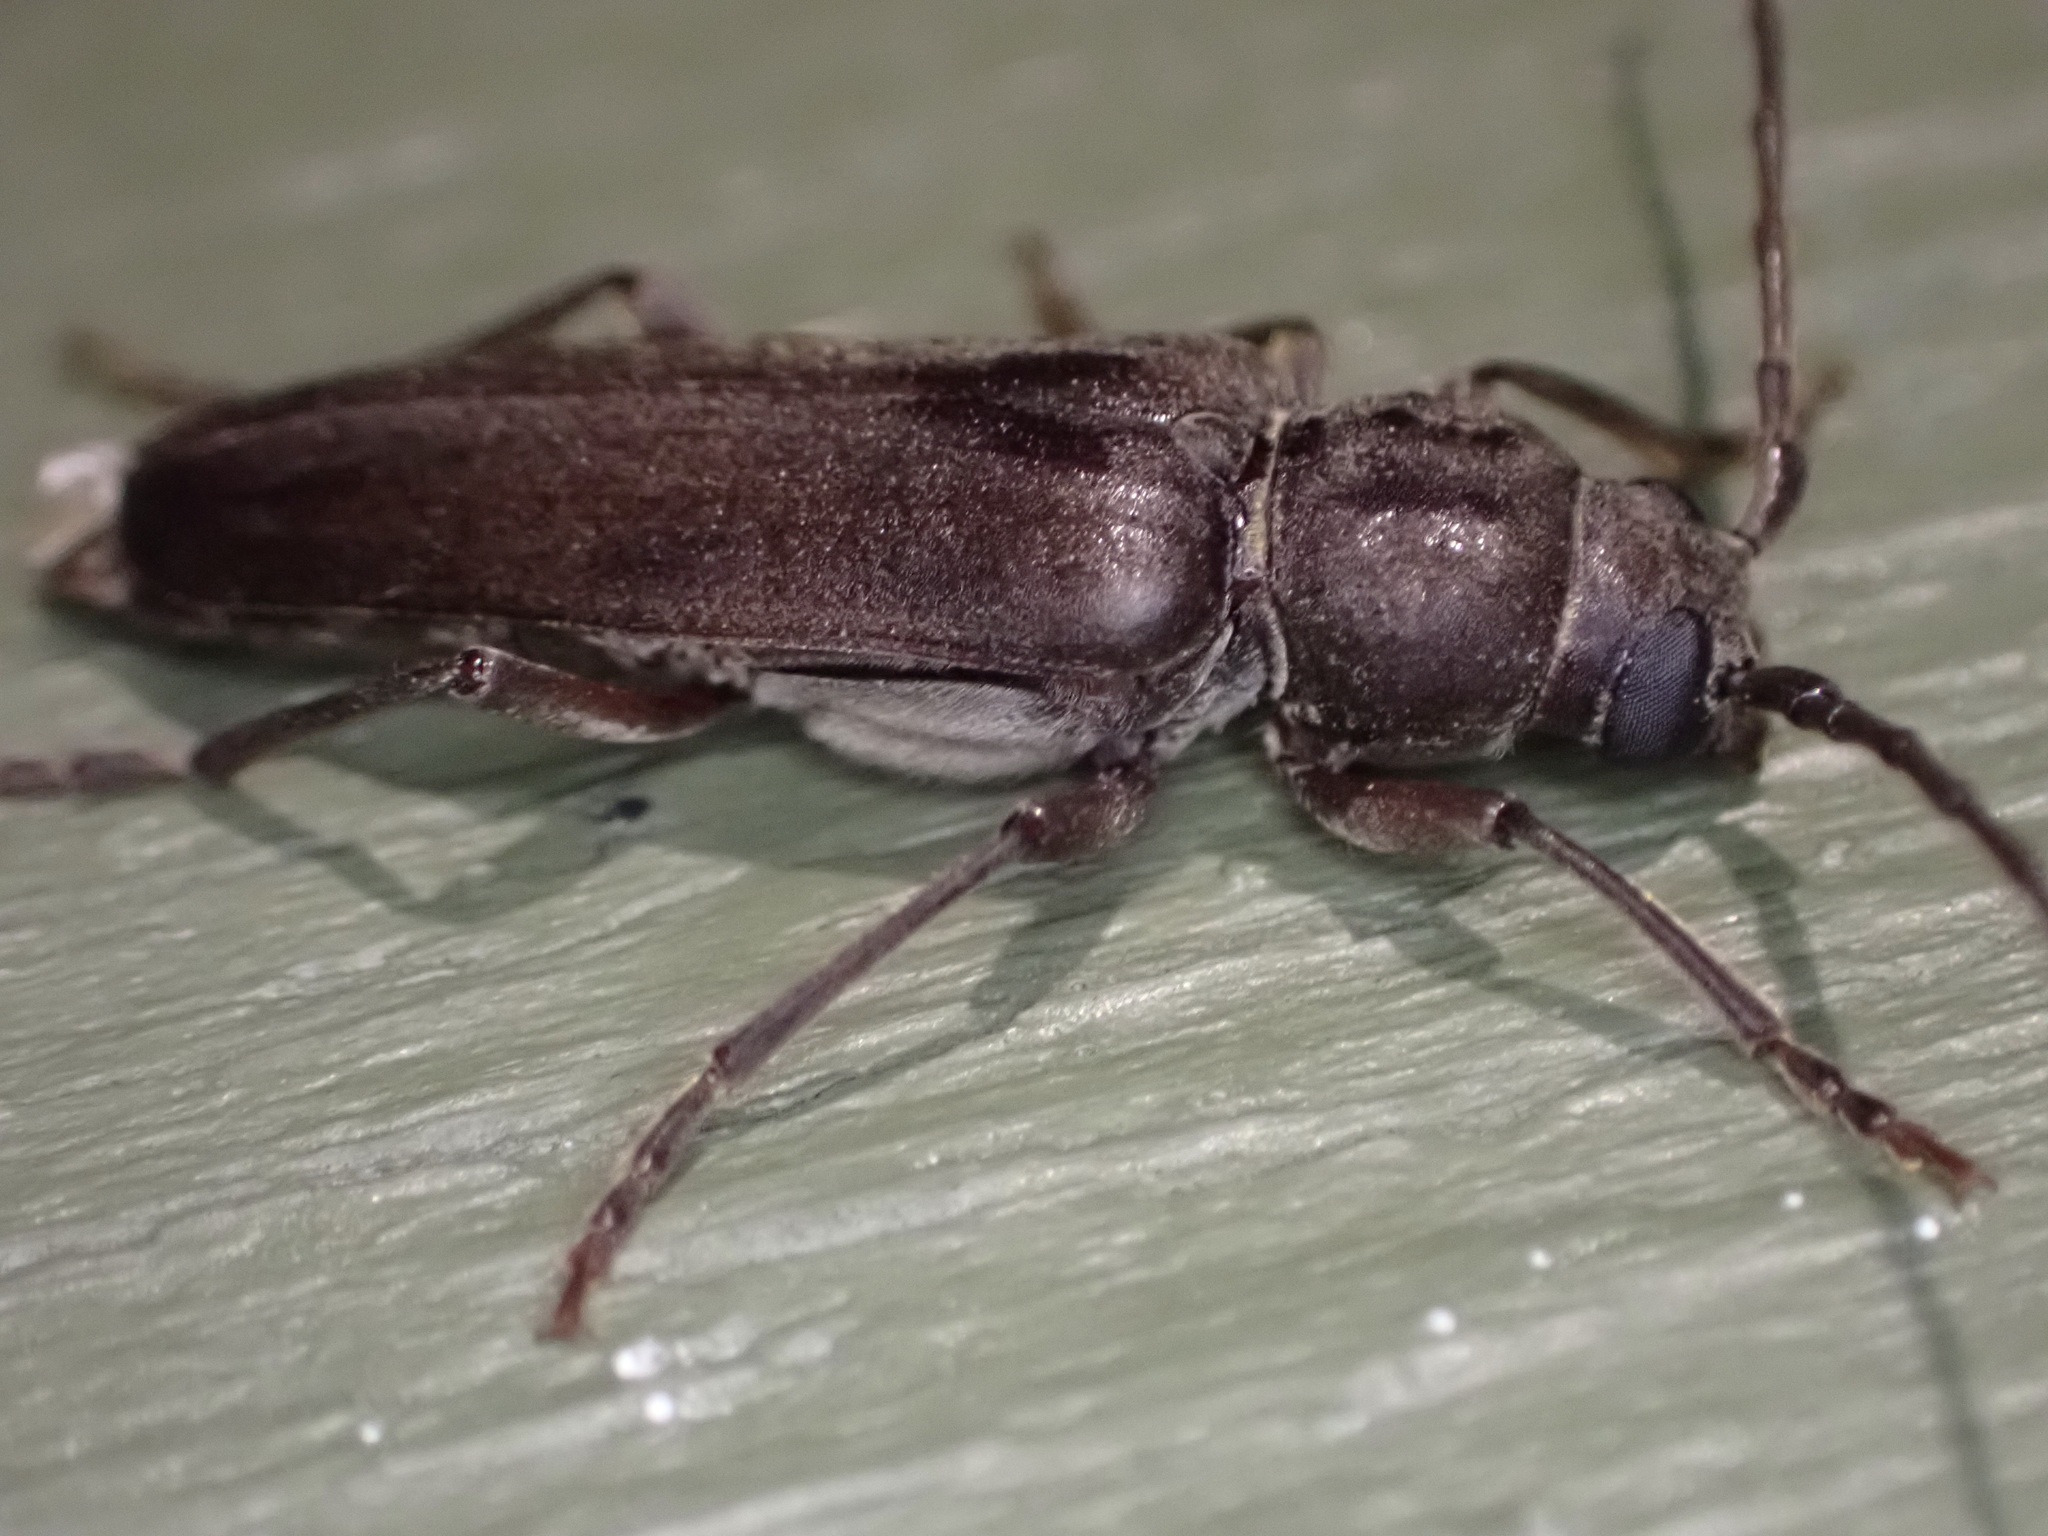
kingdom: Animalia
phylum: Arthropoda
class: Insecta
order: Coleoptera
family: Cerambycidae
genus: Arhopalus
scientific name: Arhopalus ferus
